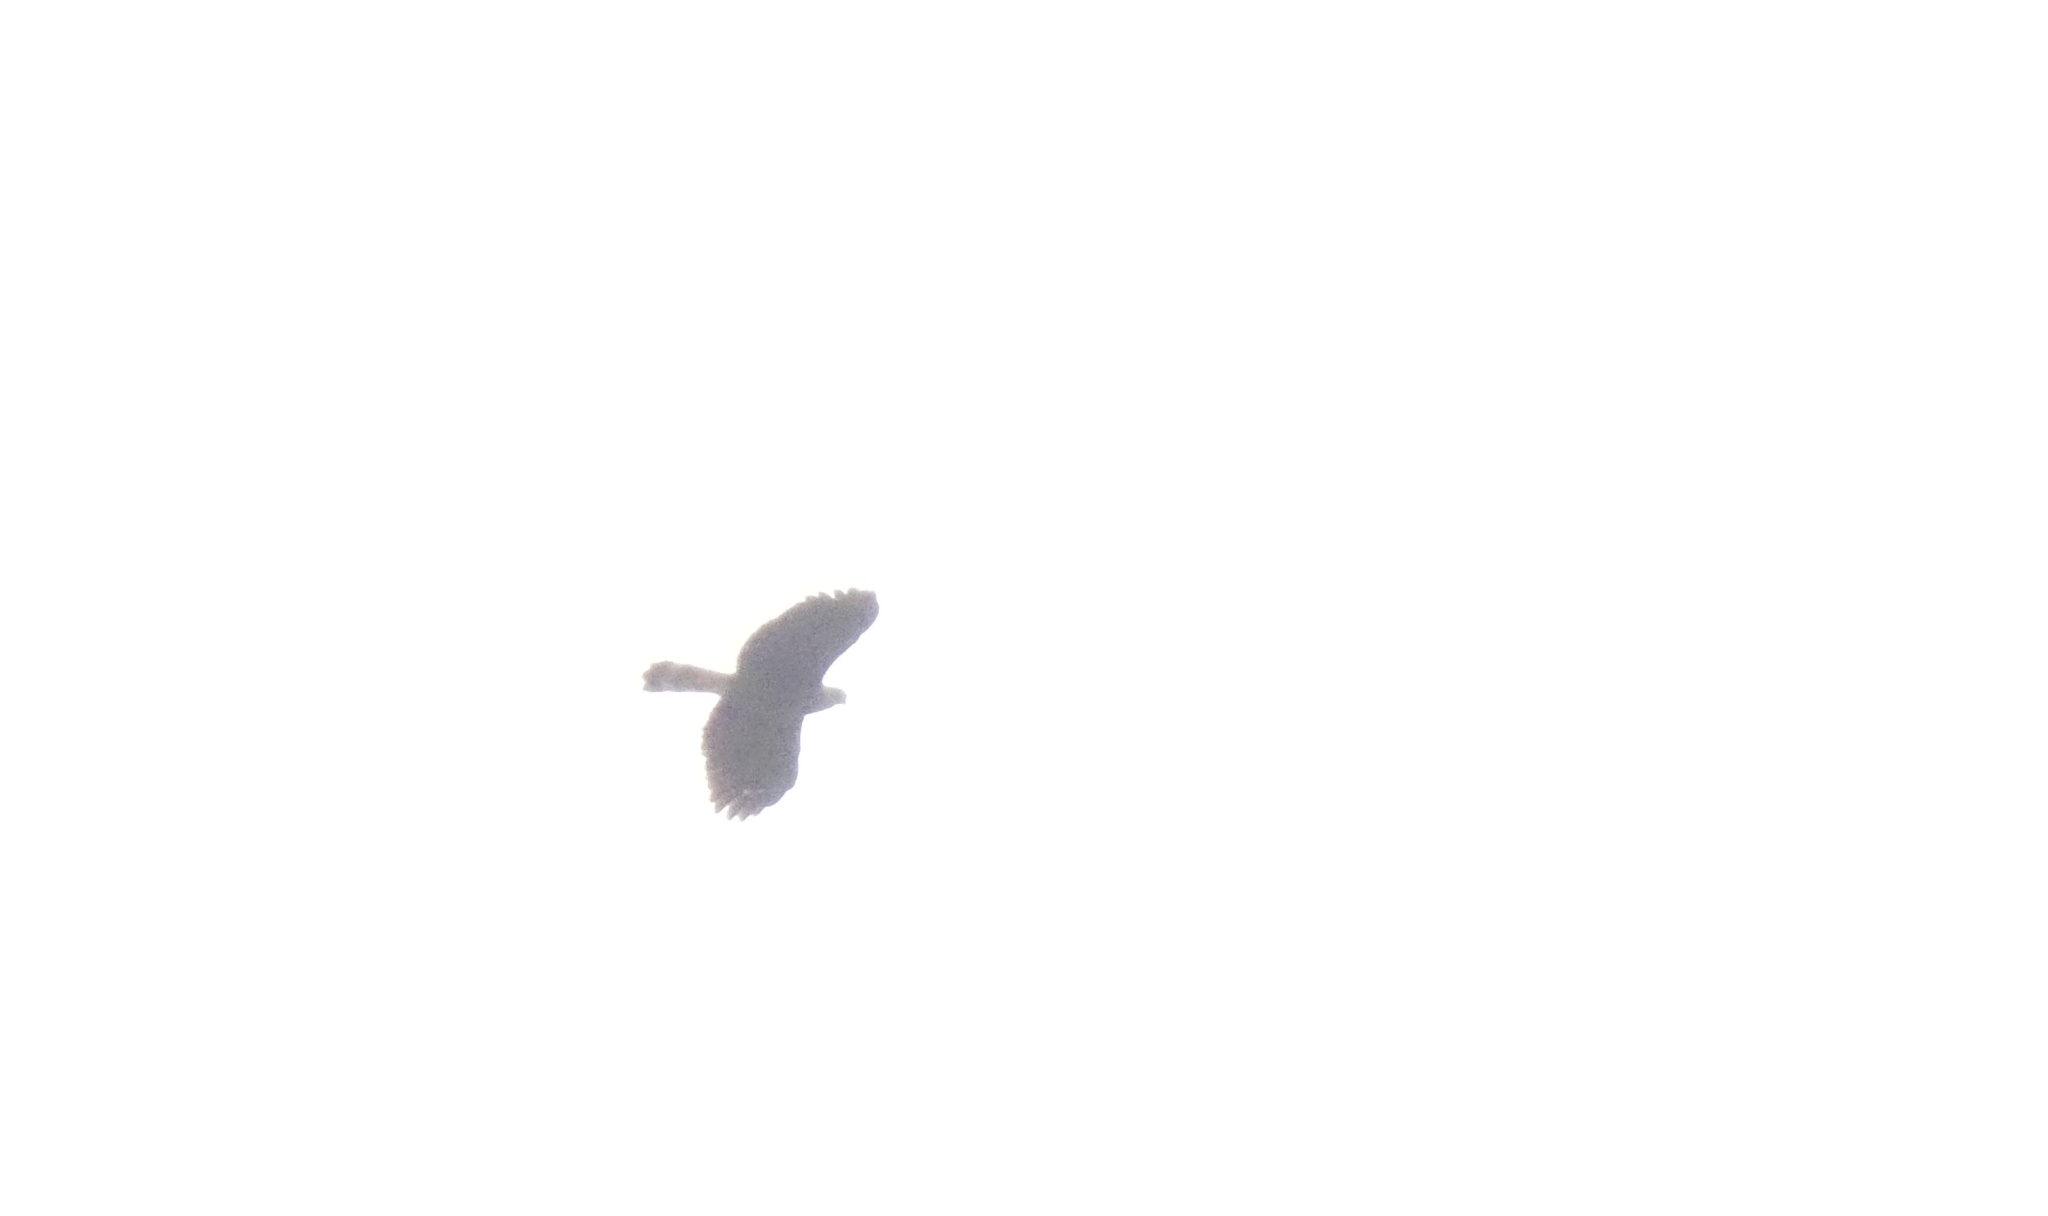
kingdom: Animalia
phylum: Chordata
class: Aves
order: Accipitriformes
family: Accipitridae
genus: Geranospiza
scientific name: Geranospiza caerulescens
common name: Crane hawk
